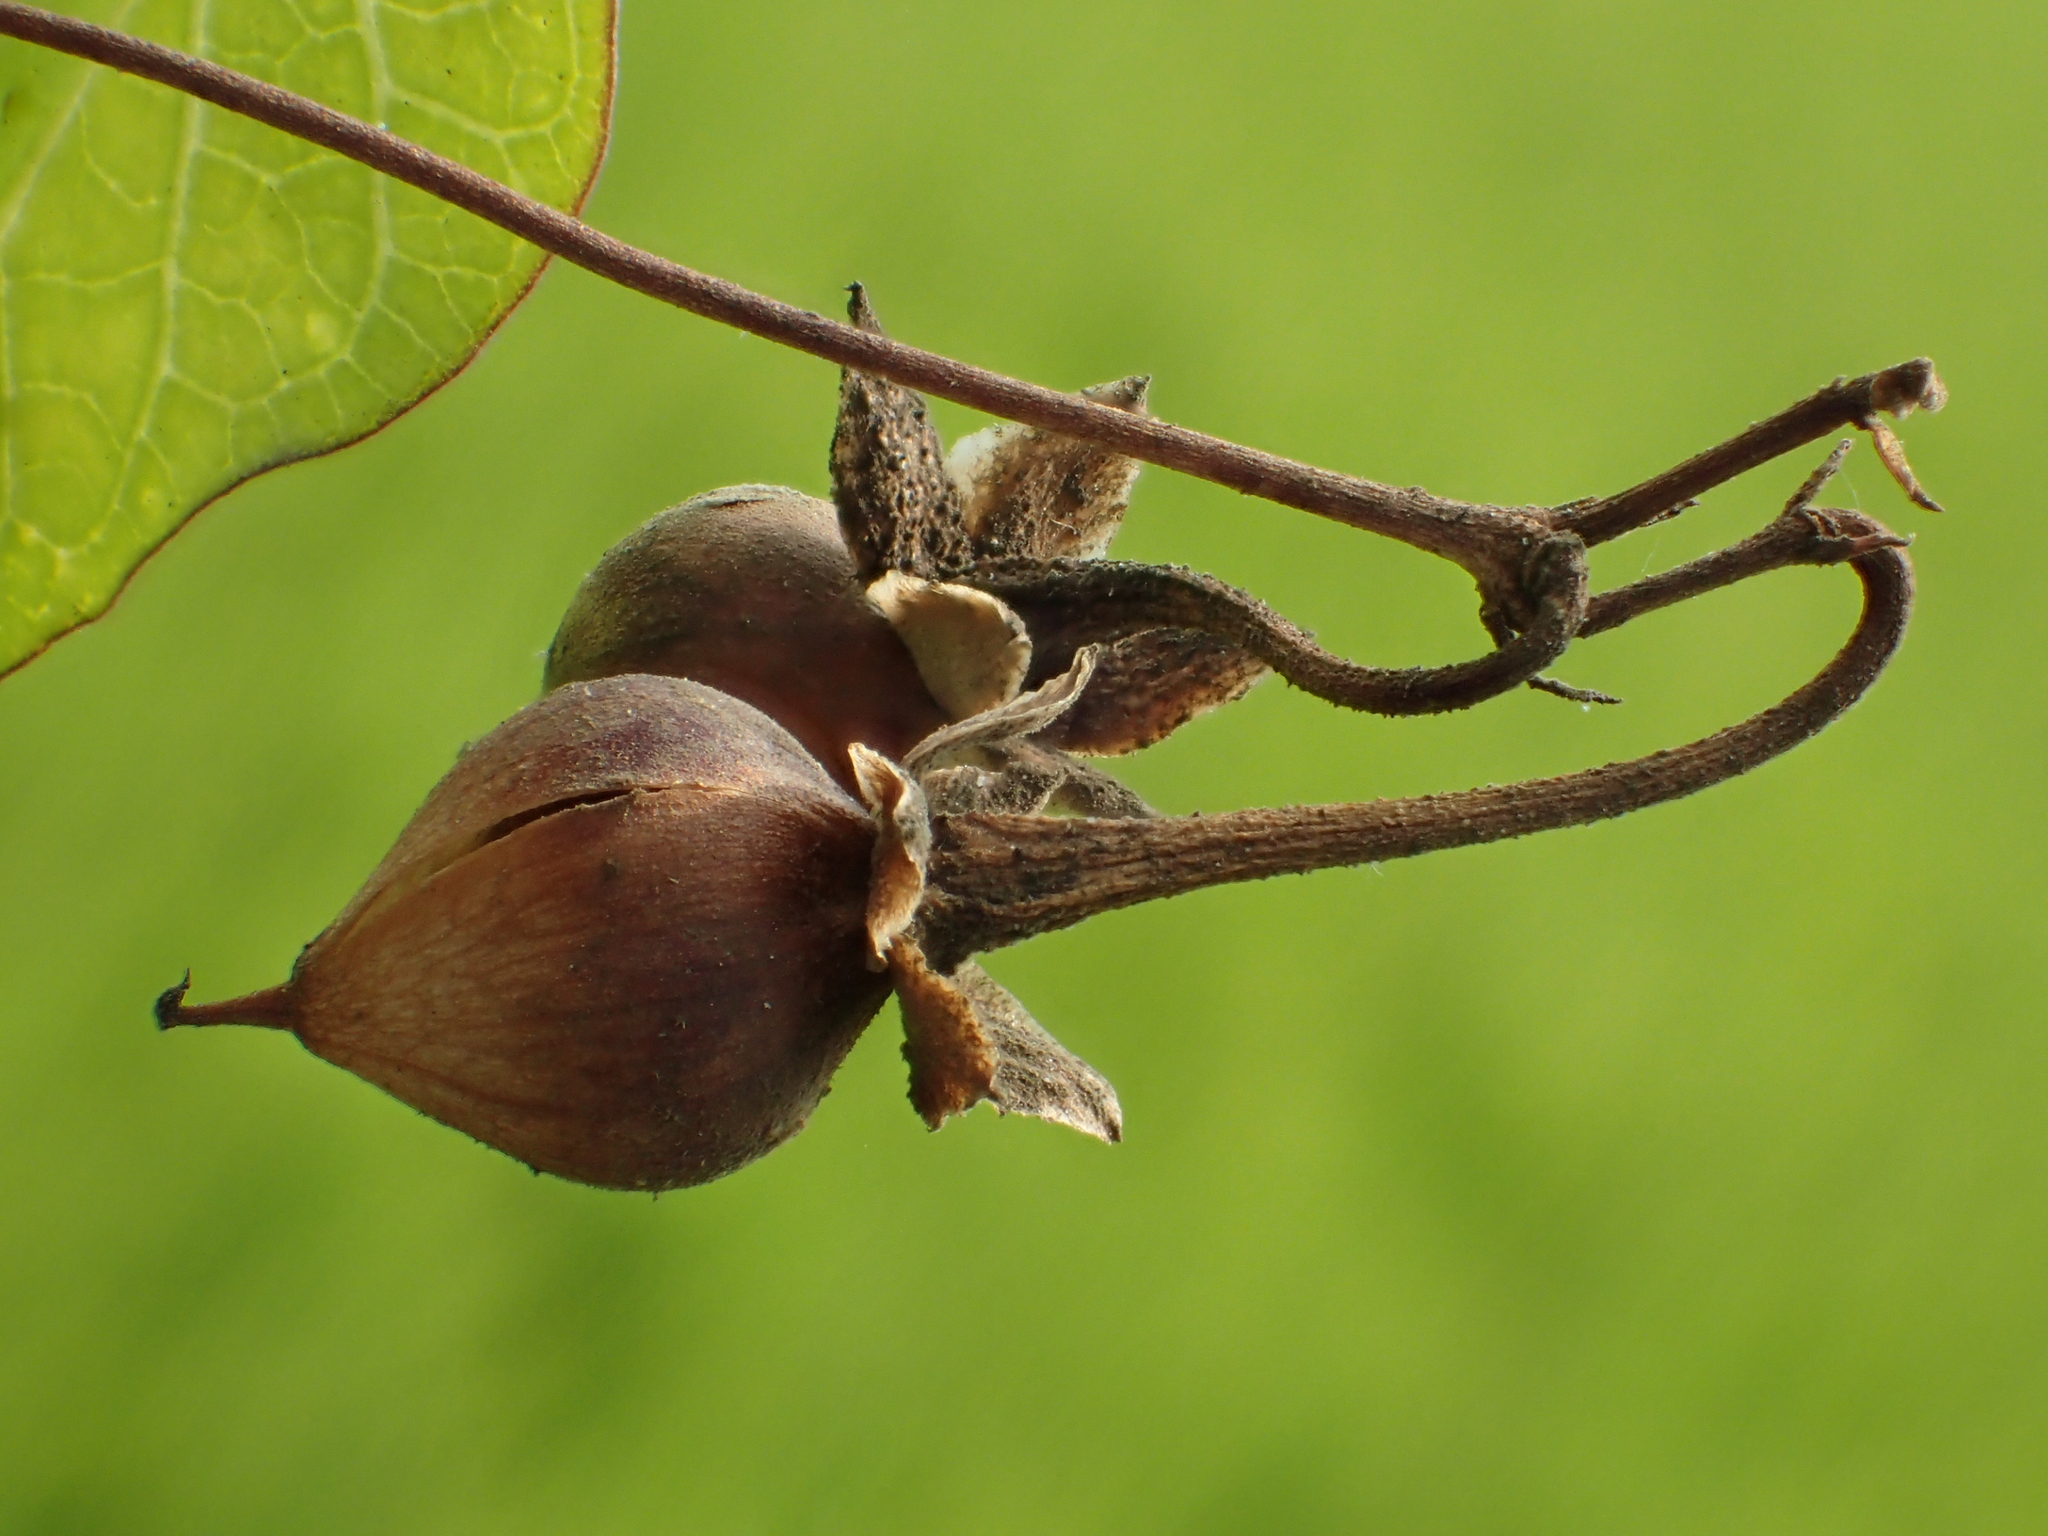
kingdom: Plantae
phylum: Tracheophyta
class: Magnoliopsida
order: Solanales
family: Convolvulaceae
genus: Ipomoea
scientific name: Ipomoea obscura
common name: Obscure morning-glory
